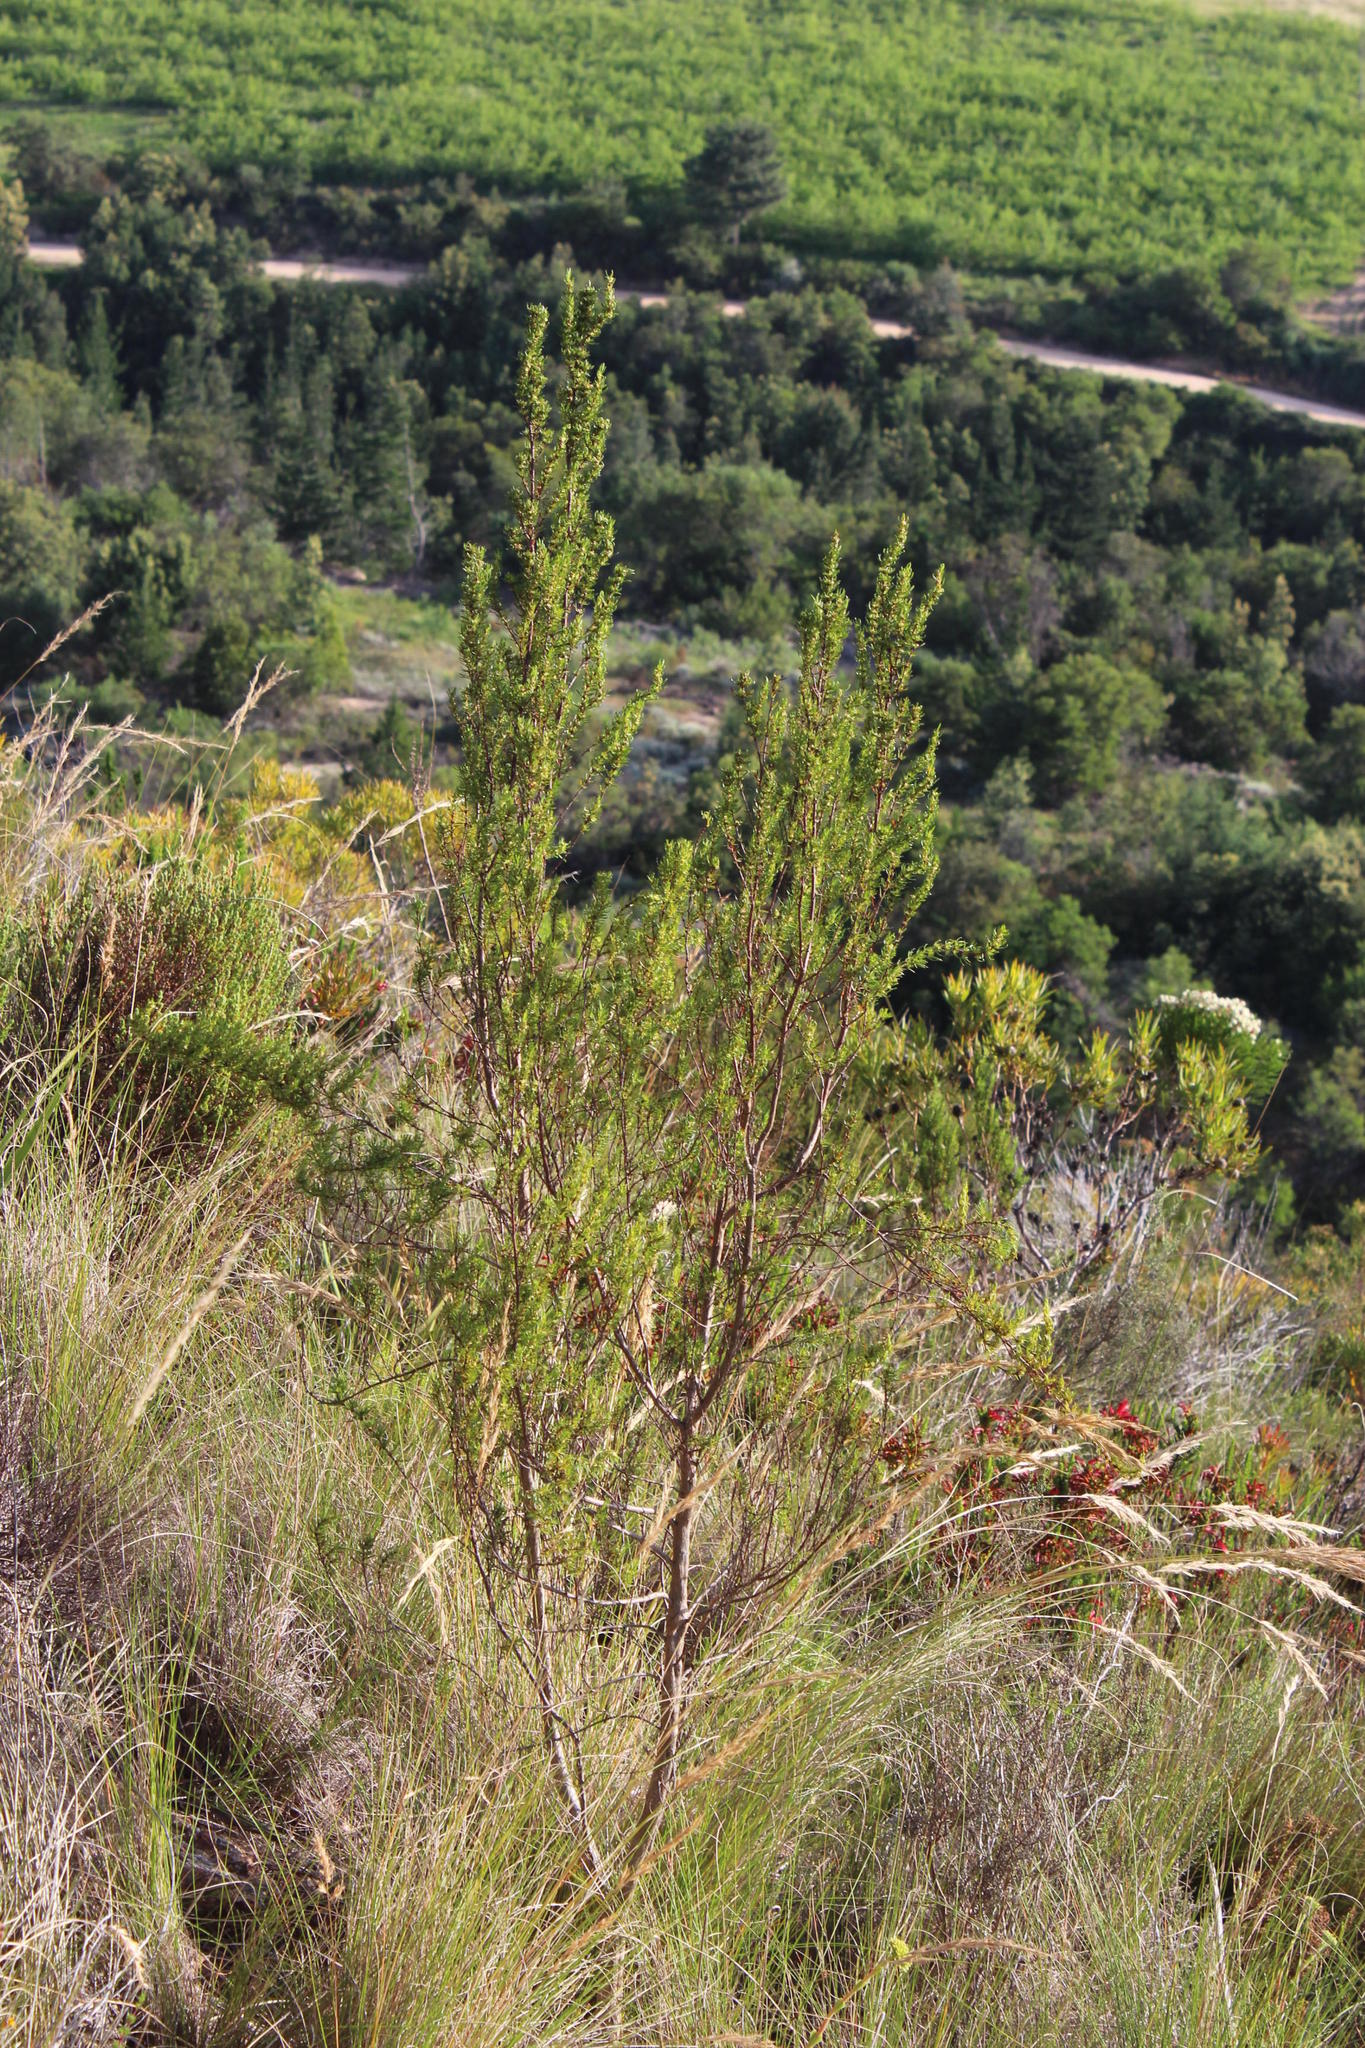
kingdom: Plantae
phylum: Tracheophyta
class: Magnoliopsida
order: Gentianales
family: Rubiaceae
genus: Anthospermum
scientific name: Anthospermum spathulatum
